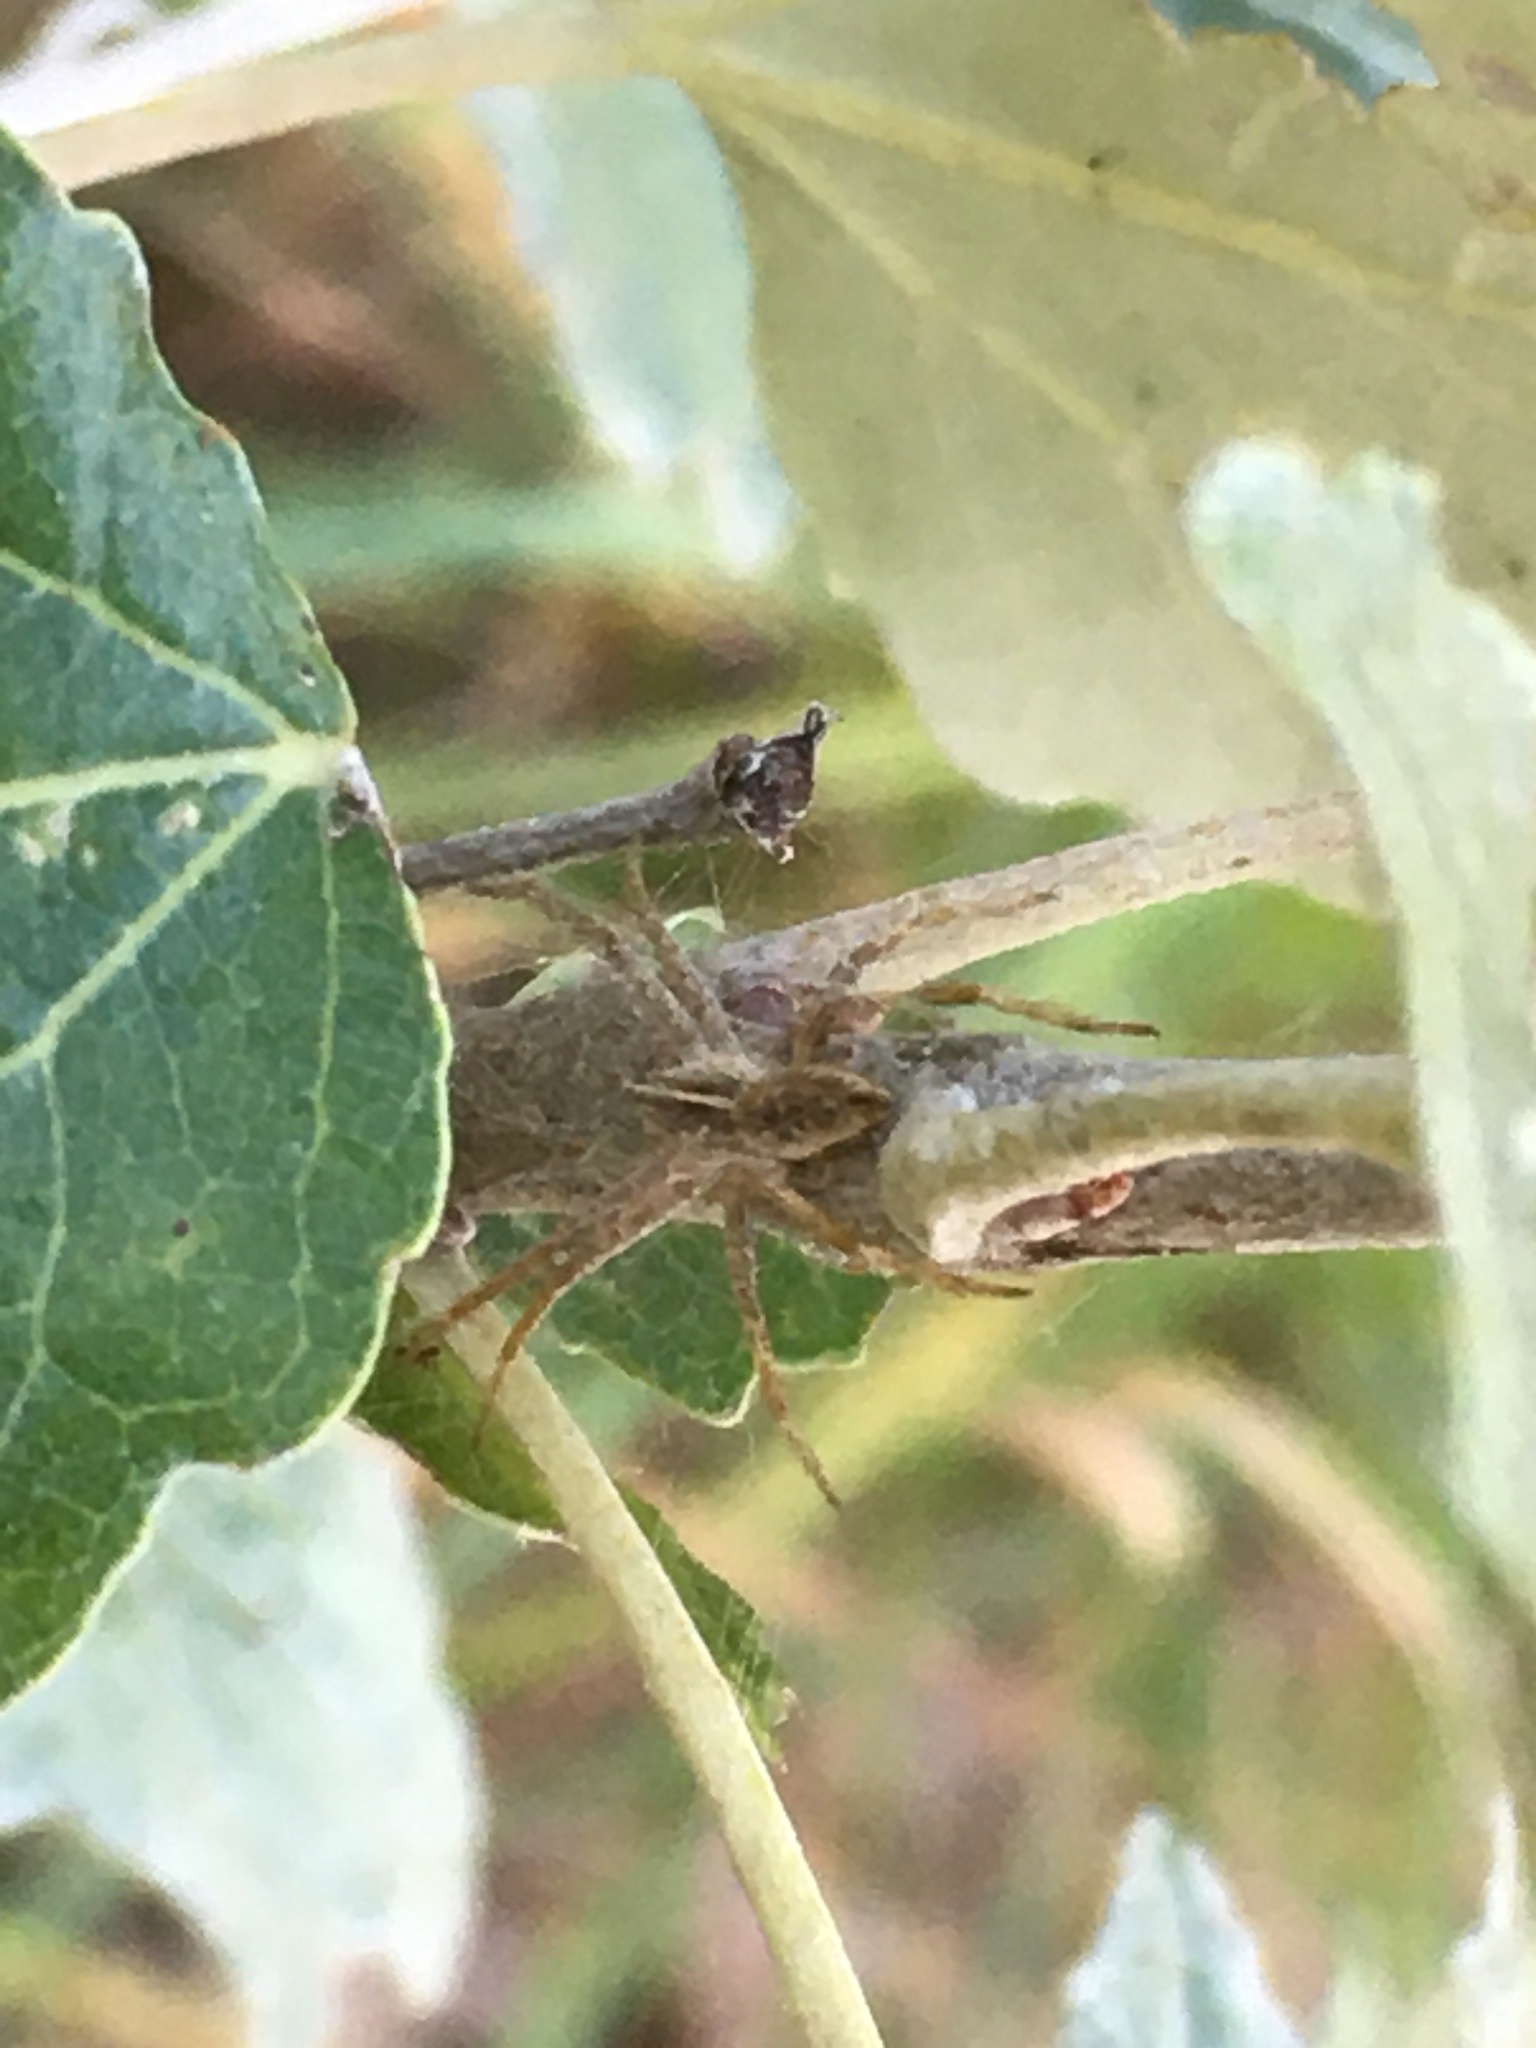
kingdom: Animalia
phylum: Arthropoda
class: Arachnida
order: Araneae
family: Pisauridae
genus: Pisaura
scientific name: Pisaura mirabilis
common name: Tent spider
